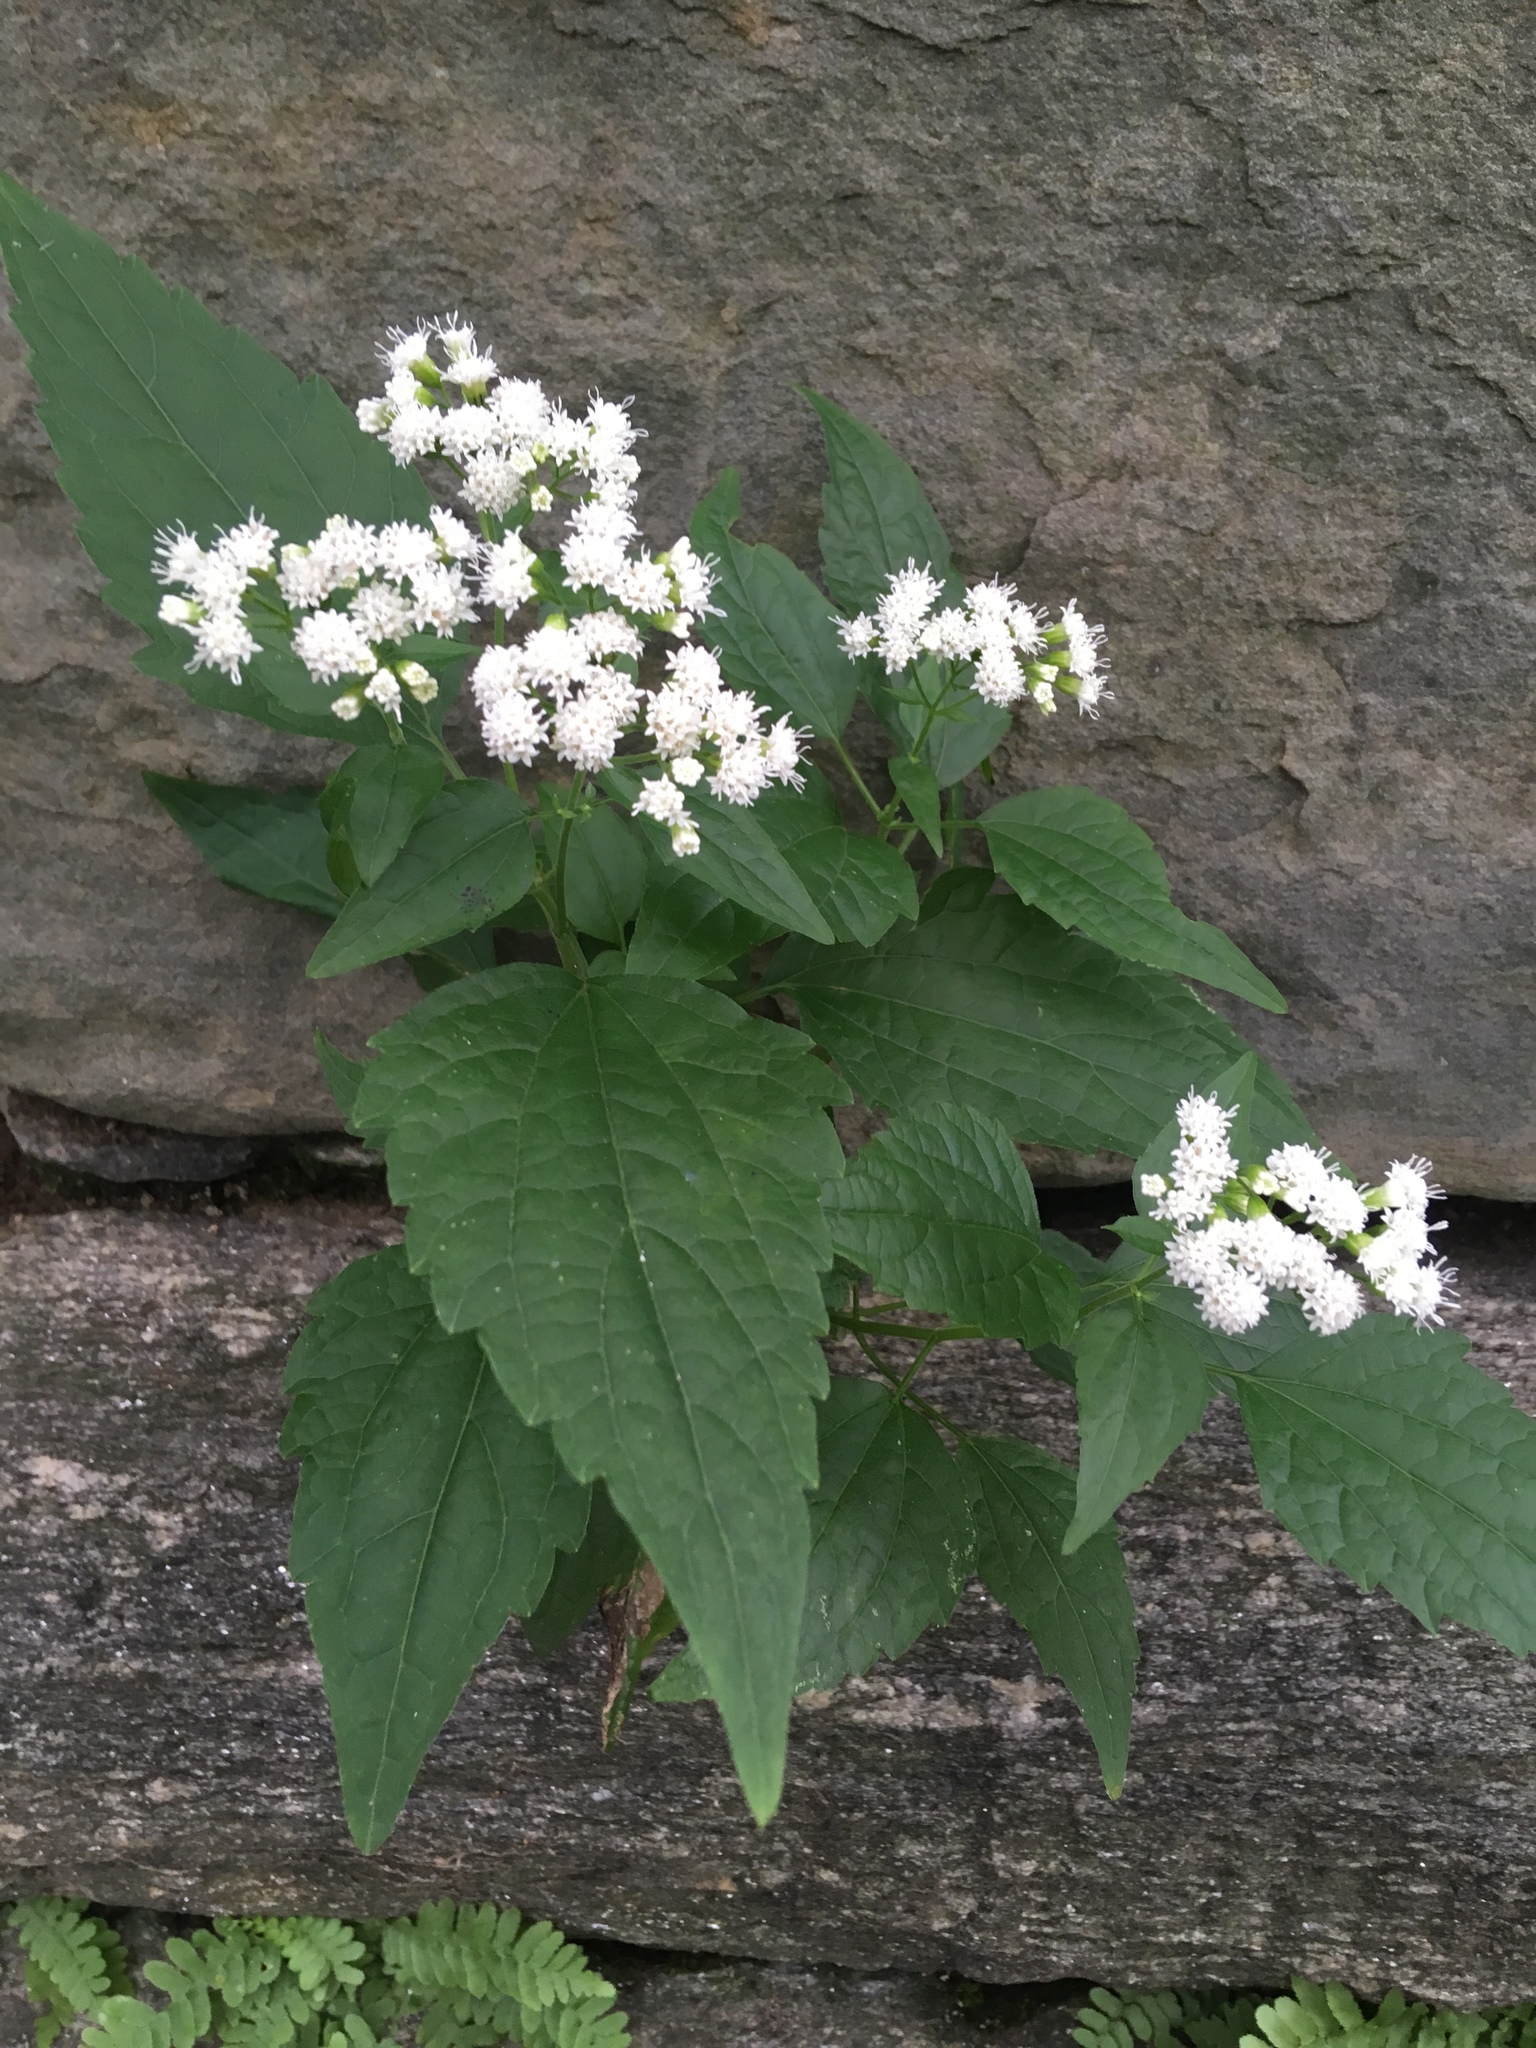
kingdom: Plantae
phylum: Tracheophyta
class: Magnoliopsida
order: Asterales
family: Asteraceae
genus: Ageratina
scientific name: Ageratina altissima
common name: White snakeroot
